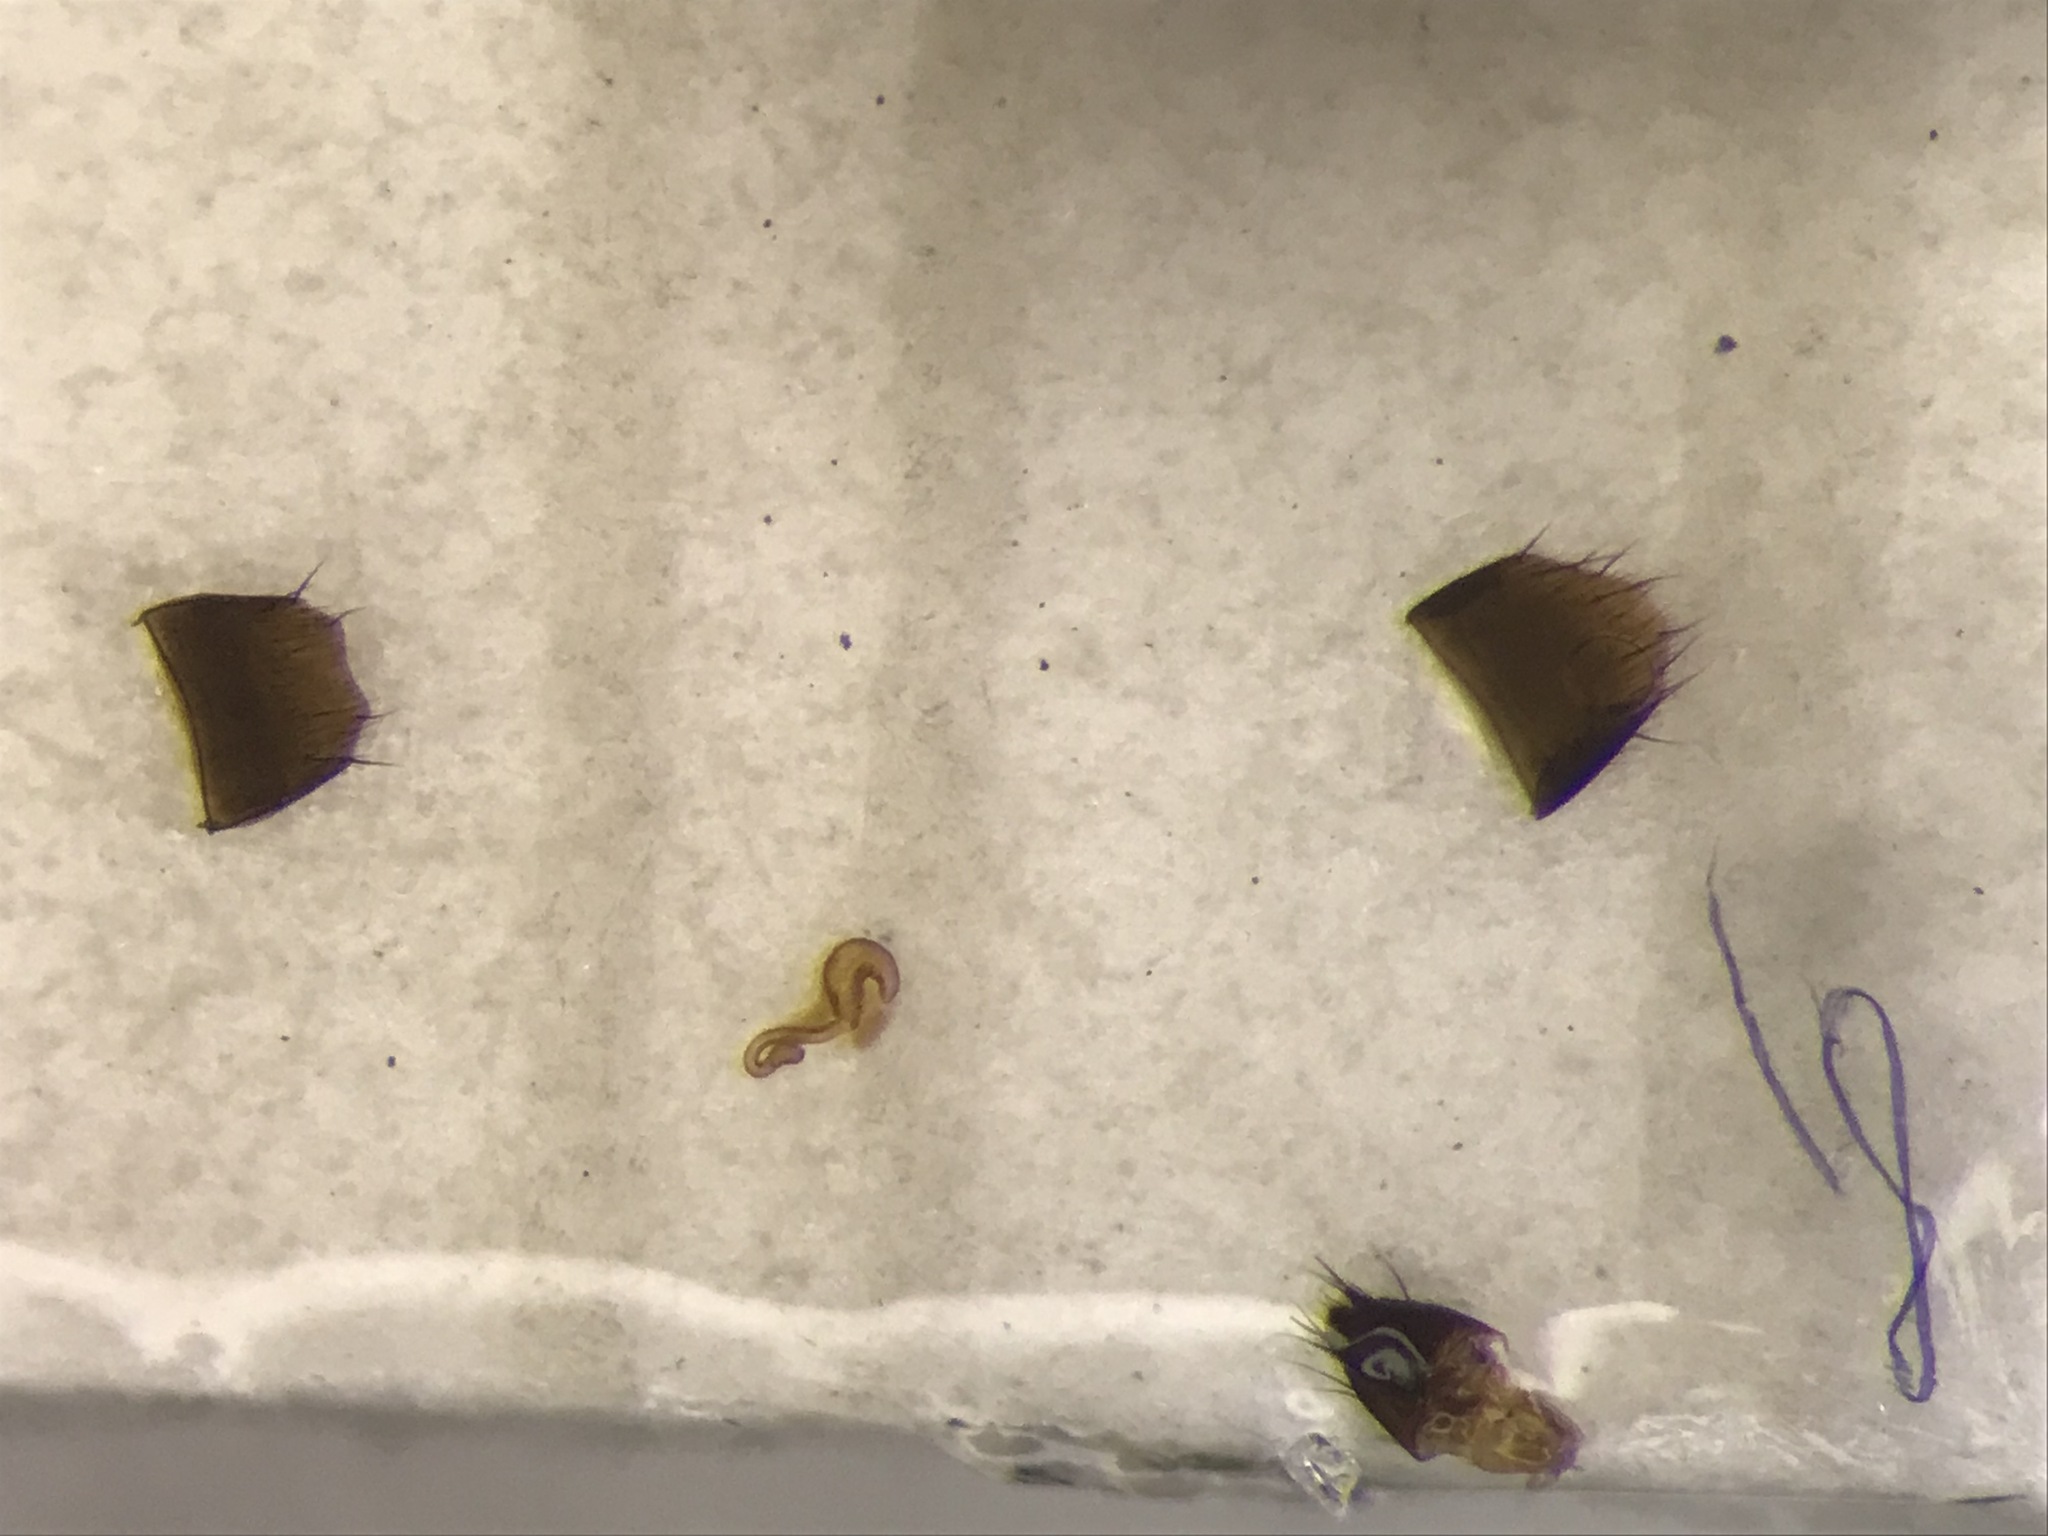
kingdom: Animalia
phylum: Arthropoda
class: Insecta
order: Coleoptera
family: Staphylinidae
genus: Atheta
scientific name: Atheta hampshirensis
